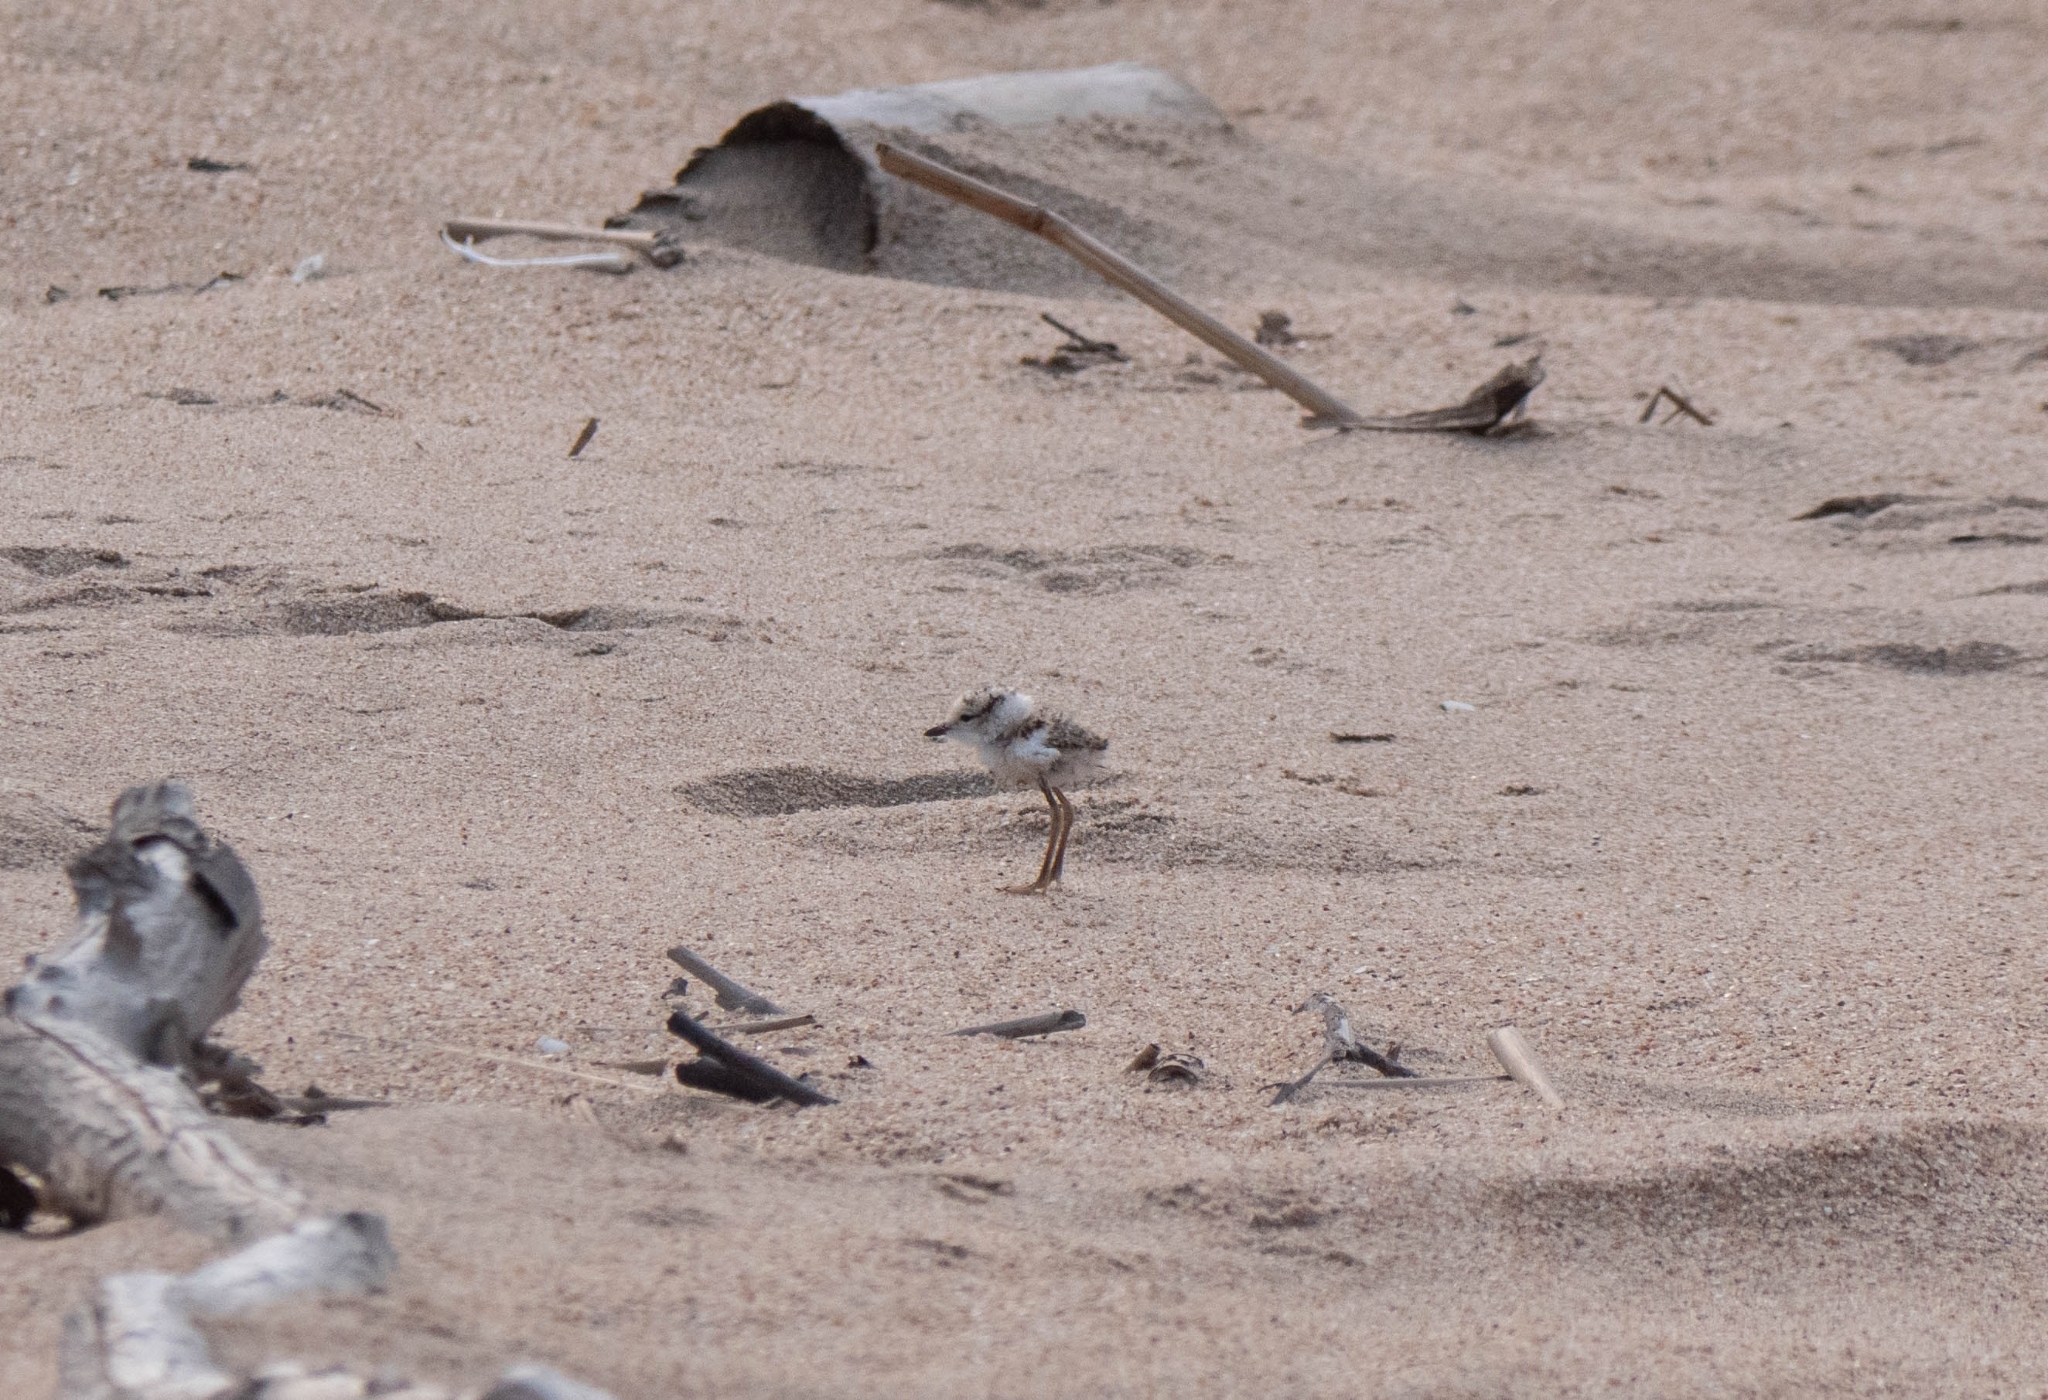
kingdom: Animalia
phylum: Chordata
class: Aves
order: Charadriiformes
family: Charadriidae
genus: Anarhynchus
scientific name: Anarhynchus
